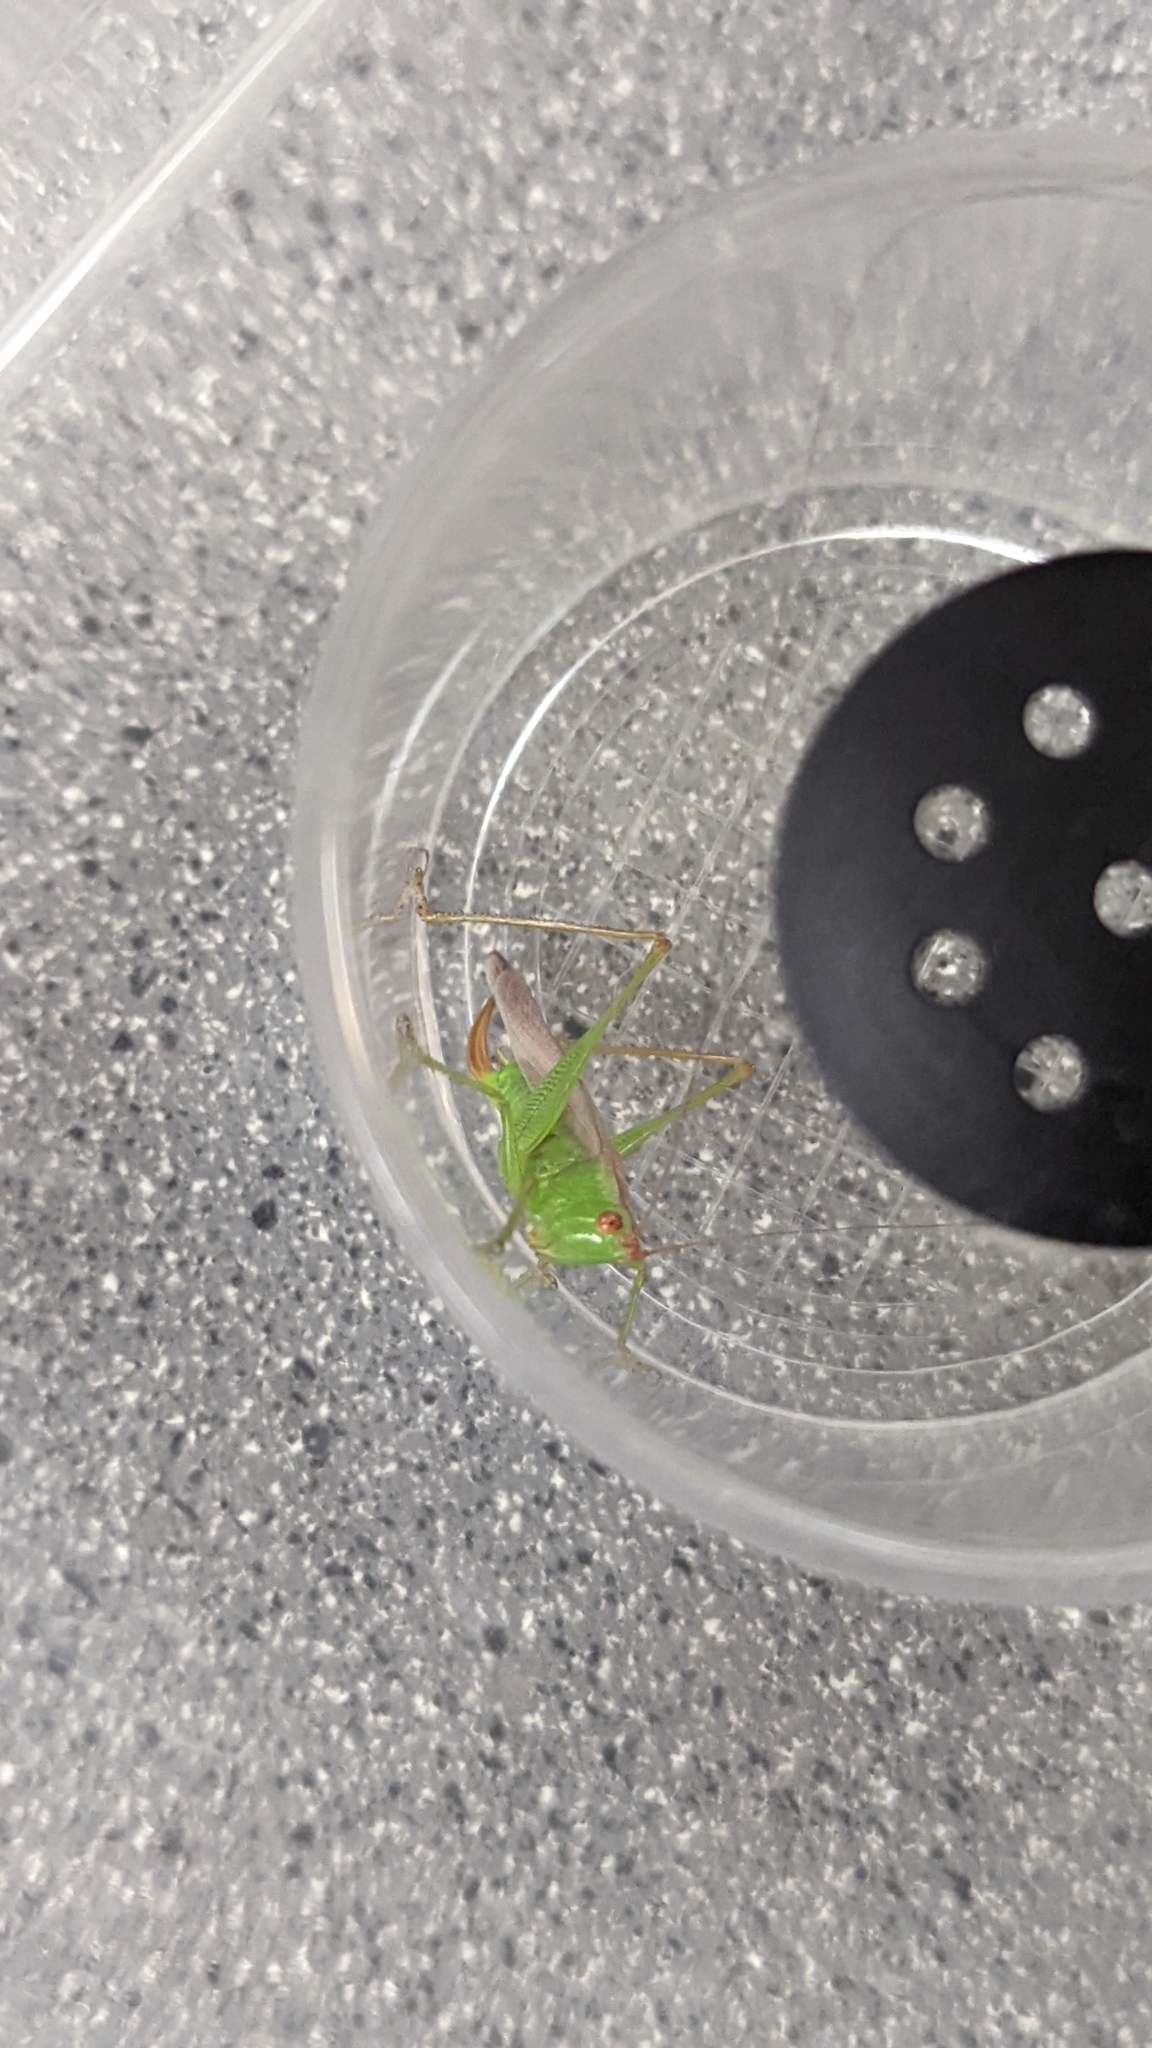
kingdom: Animalia
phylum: Arthropoda
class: Insecta
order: Orthoptera
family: Tettigoniidae
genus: Orchelimum
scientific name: Orchelimum
